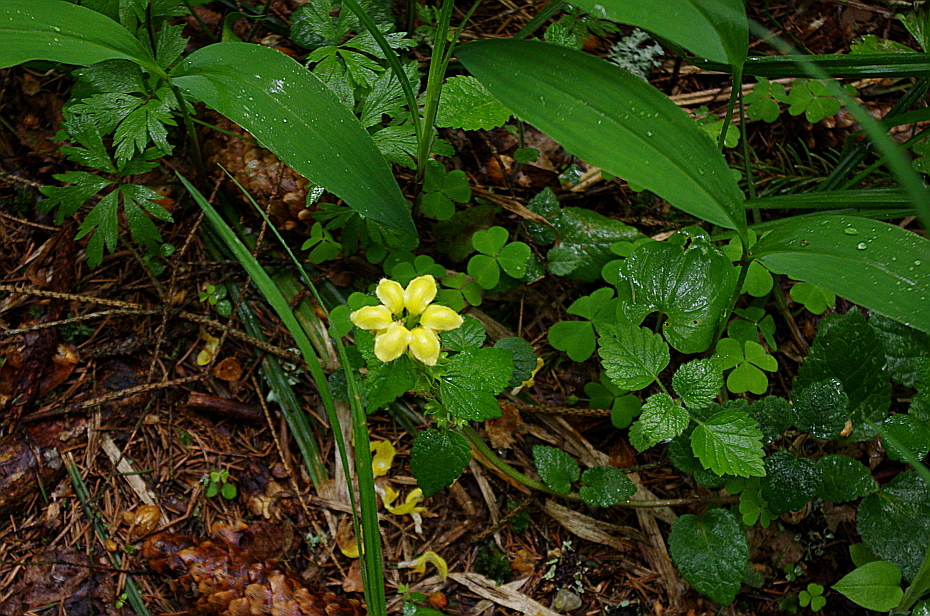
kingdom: Plantae
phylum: Tracheophyta
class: Magnoliopsida
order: Lamiales
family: Lamiaceae
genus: Lamium
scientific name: Lamium galeobdolon
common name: Yellow archangel
